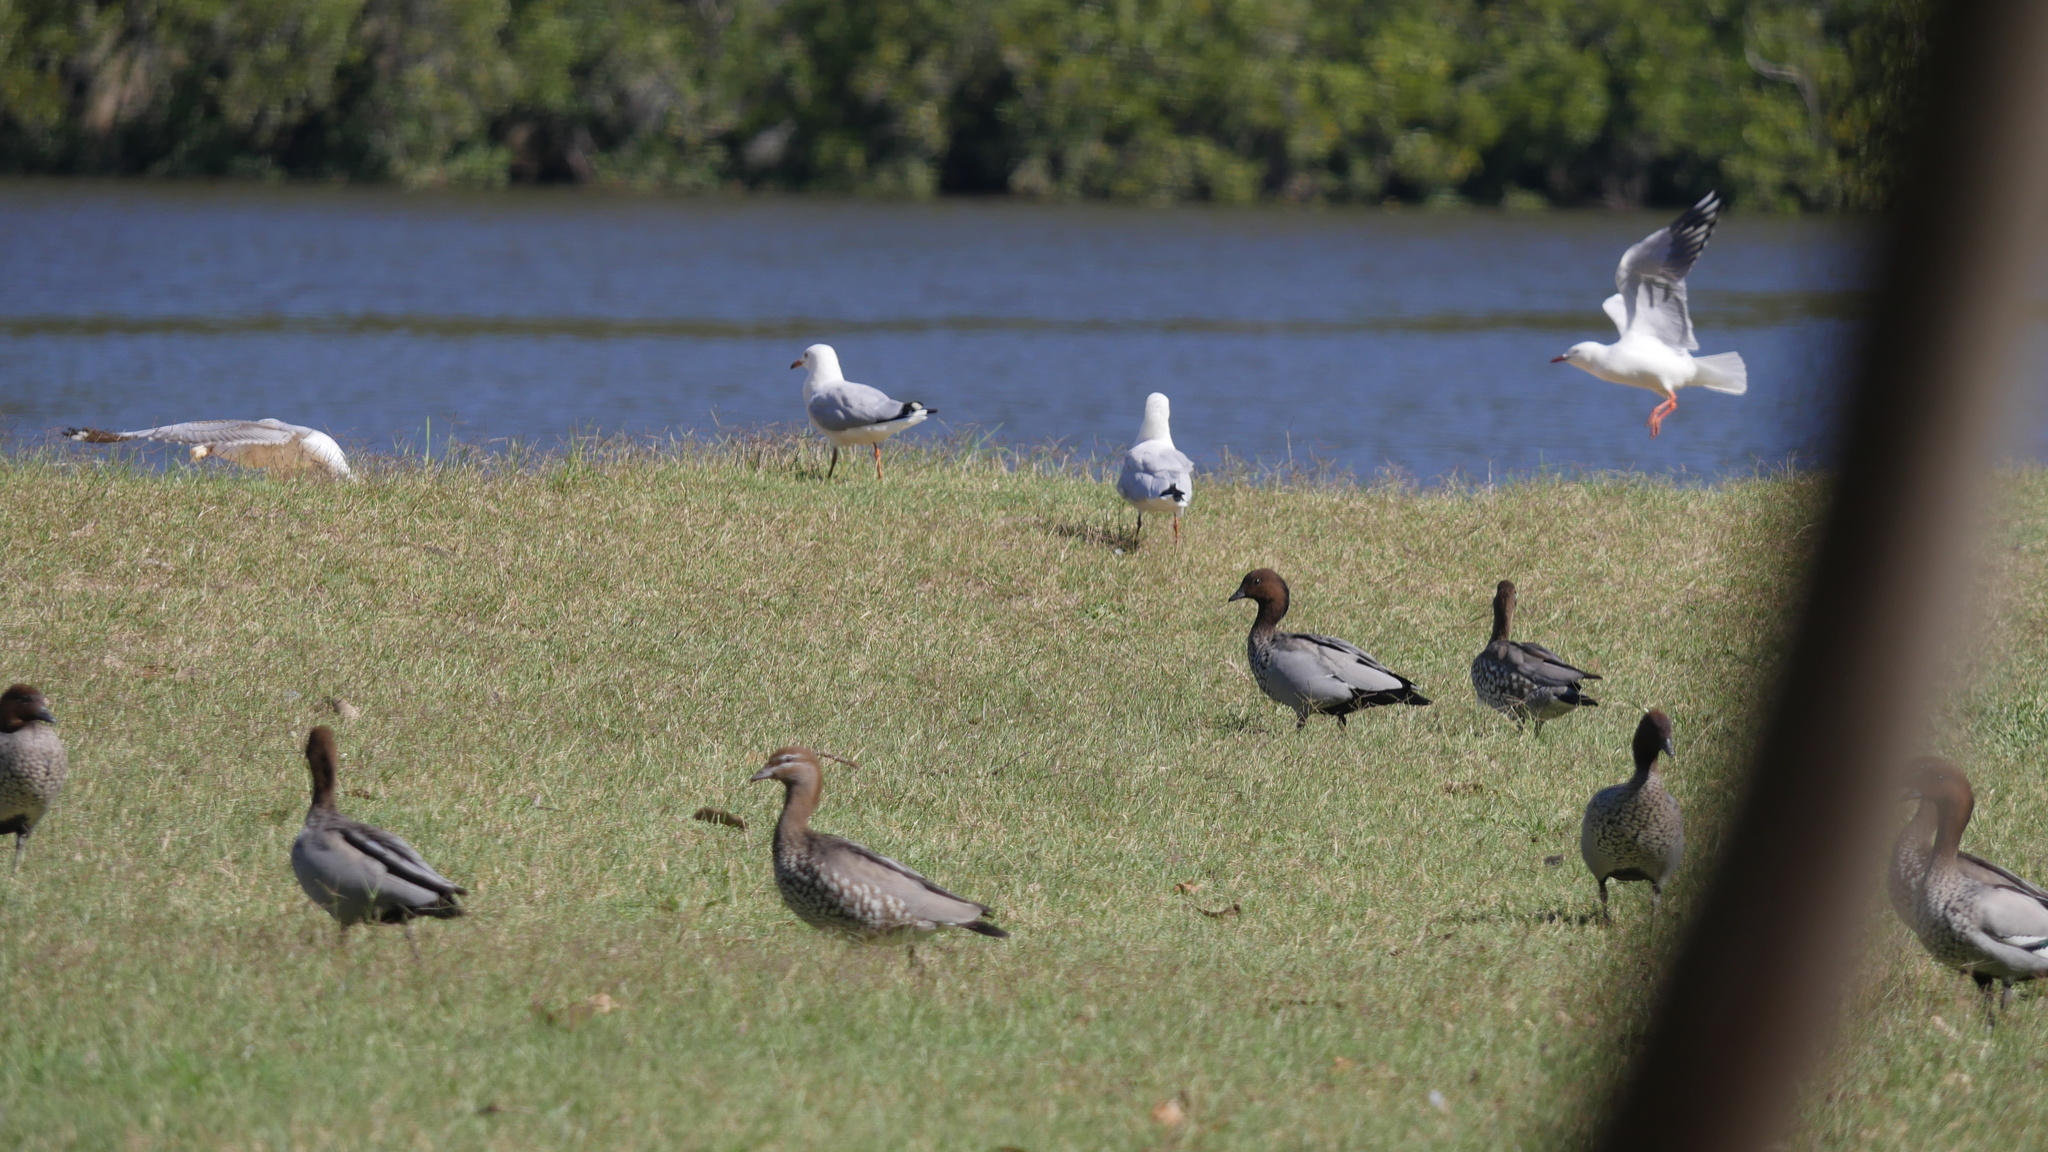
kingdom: Animalia
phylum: Chordata
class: Aves
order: Charadriiformes
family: Laridae
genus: Chroicocephalus
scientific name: Chroicocephalus novaehollandiae
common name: Silver gull
